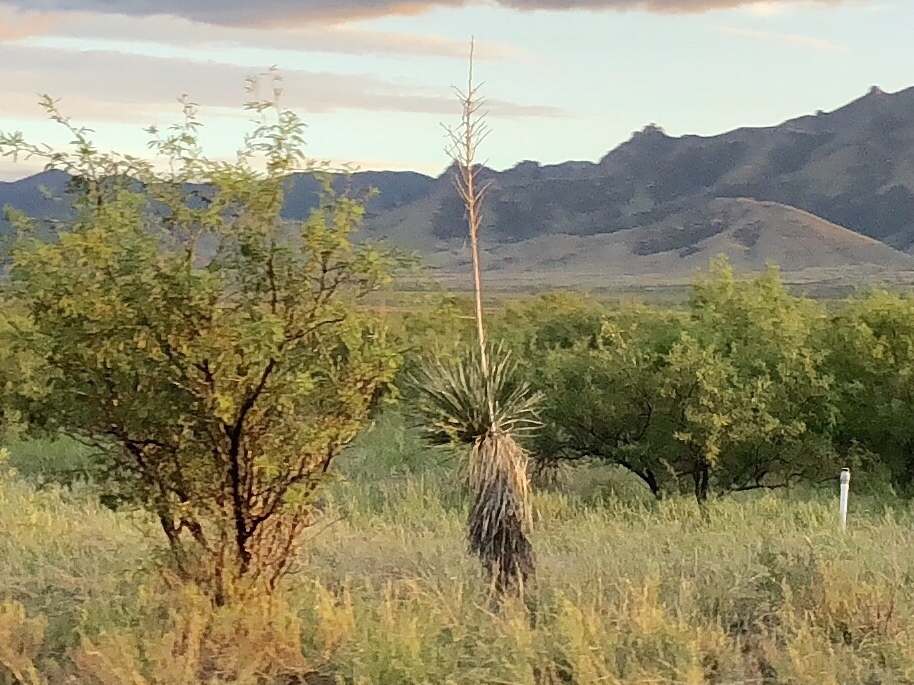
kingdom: Plantae
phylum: Tracheophyta
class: Liliopsida
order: Asparagales
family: Asparagaceae
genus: Yucca
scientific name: Yucca elata
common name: Palmella
